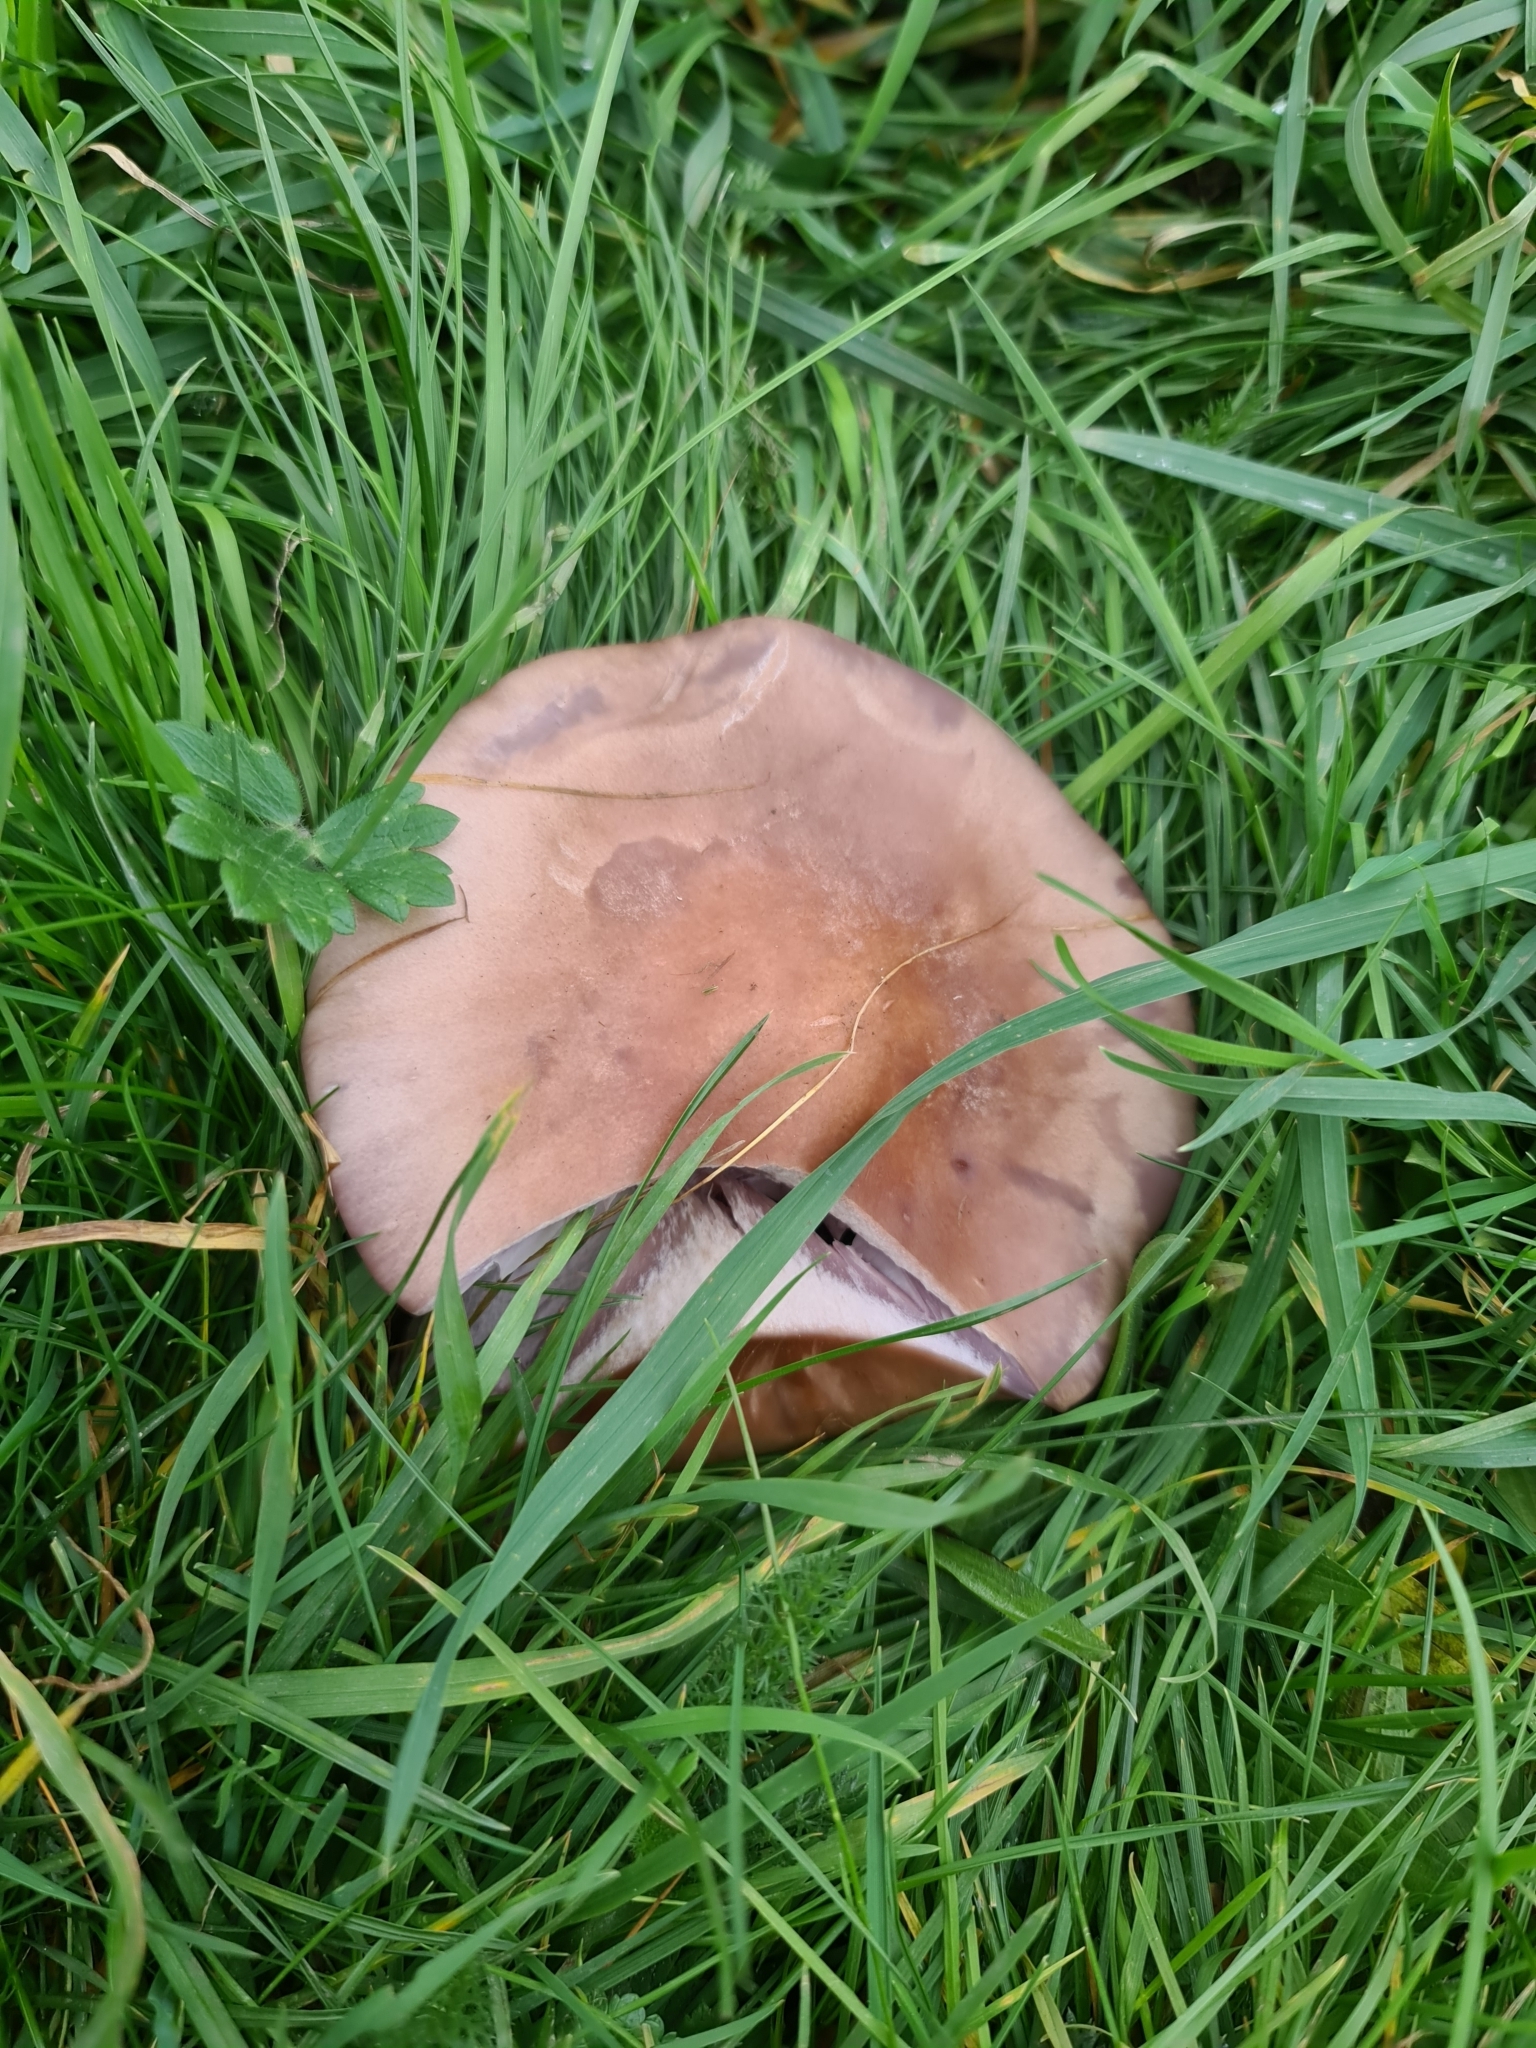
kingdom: Fungi
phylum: Basidiomycota
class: Agaricomycetes
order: Agaricales
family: Omphalotaceae
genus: Collybiopsis
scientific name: Collybiopsis peronata
